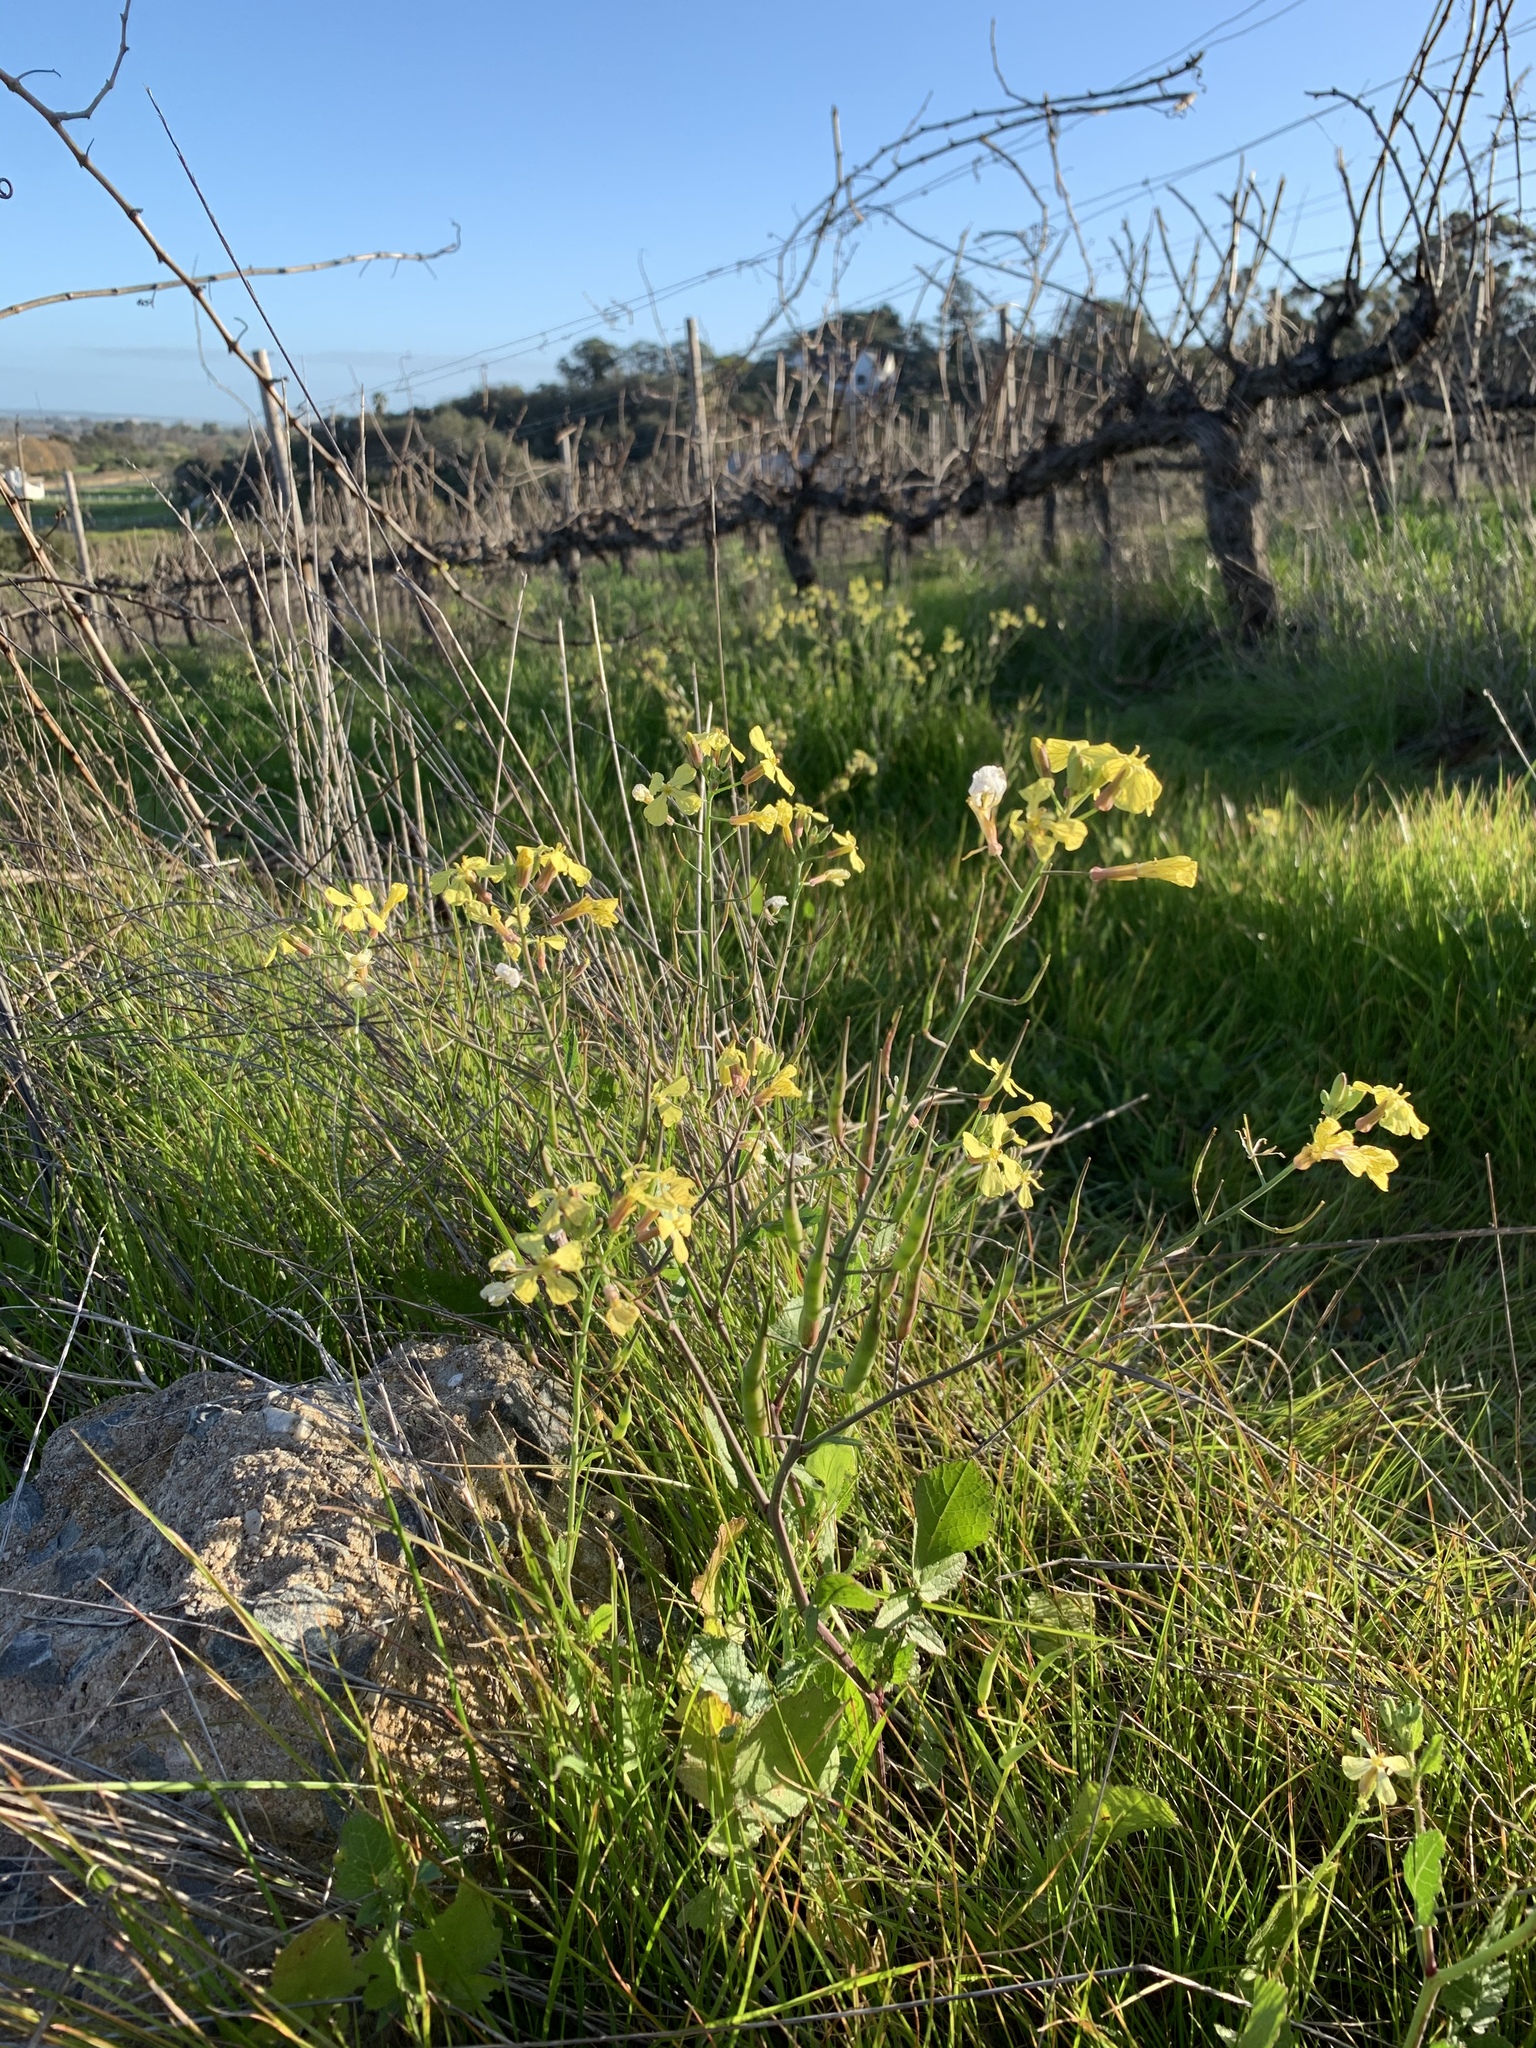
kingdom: Plantae
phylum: Tracheophyta
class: Magnoliopsida
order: Brassicales
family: Brassicaceae
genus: Raphanus
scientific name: Raphanus raphanistrum
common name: Wild radish
